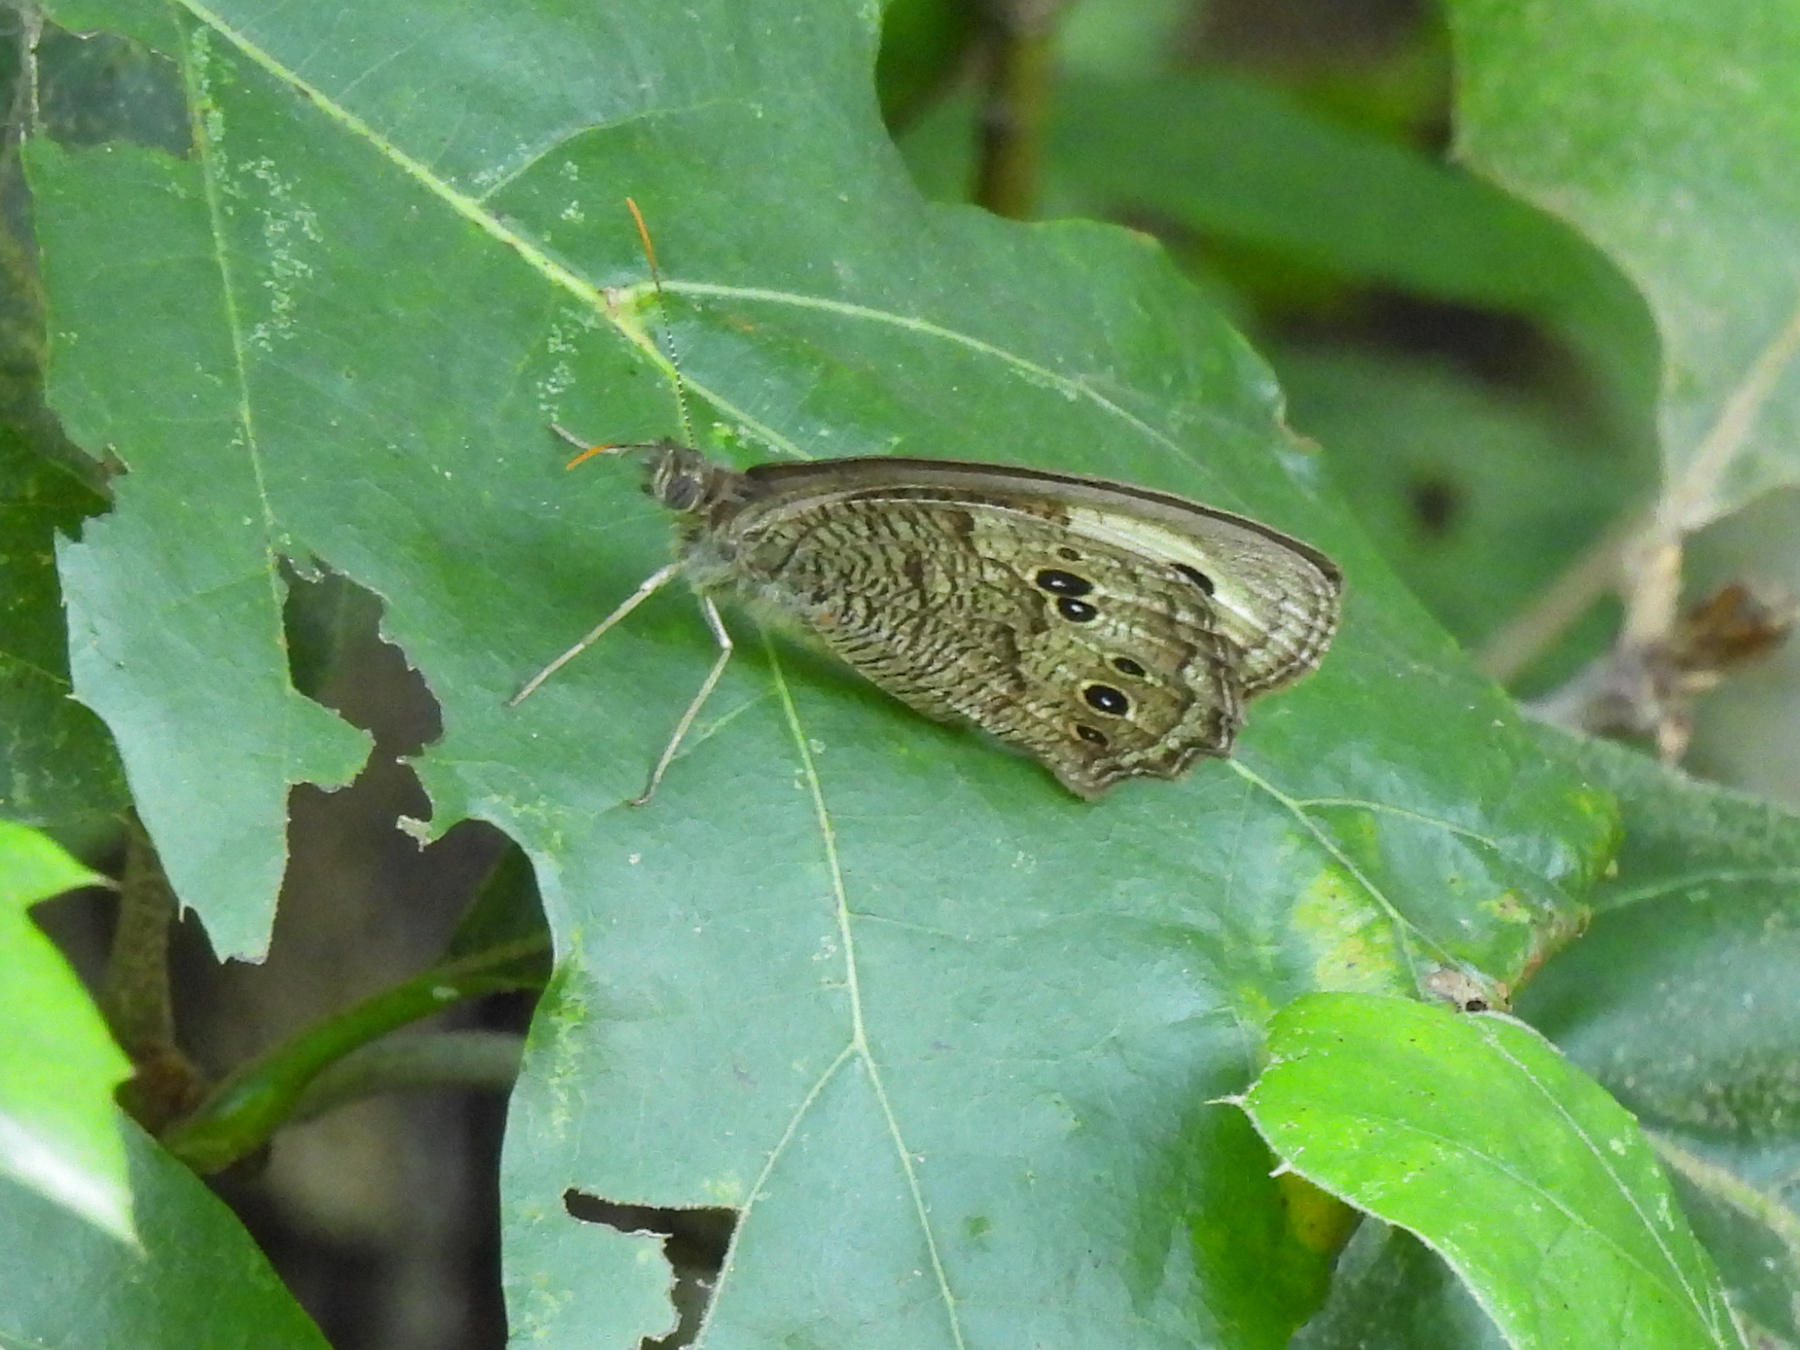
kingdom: Animalia
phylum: Arthropoda
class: Insecta
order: Lepidoptera
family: Nymphalidae
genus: Cercyonis
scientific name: Cercyonis pegala
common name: Common wood-nymph
